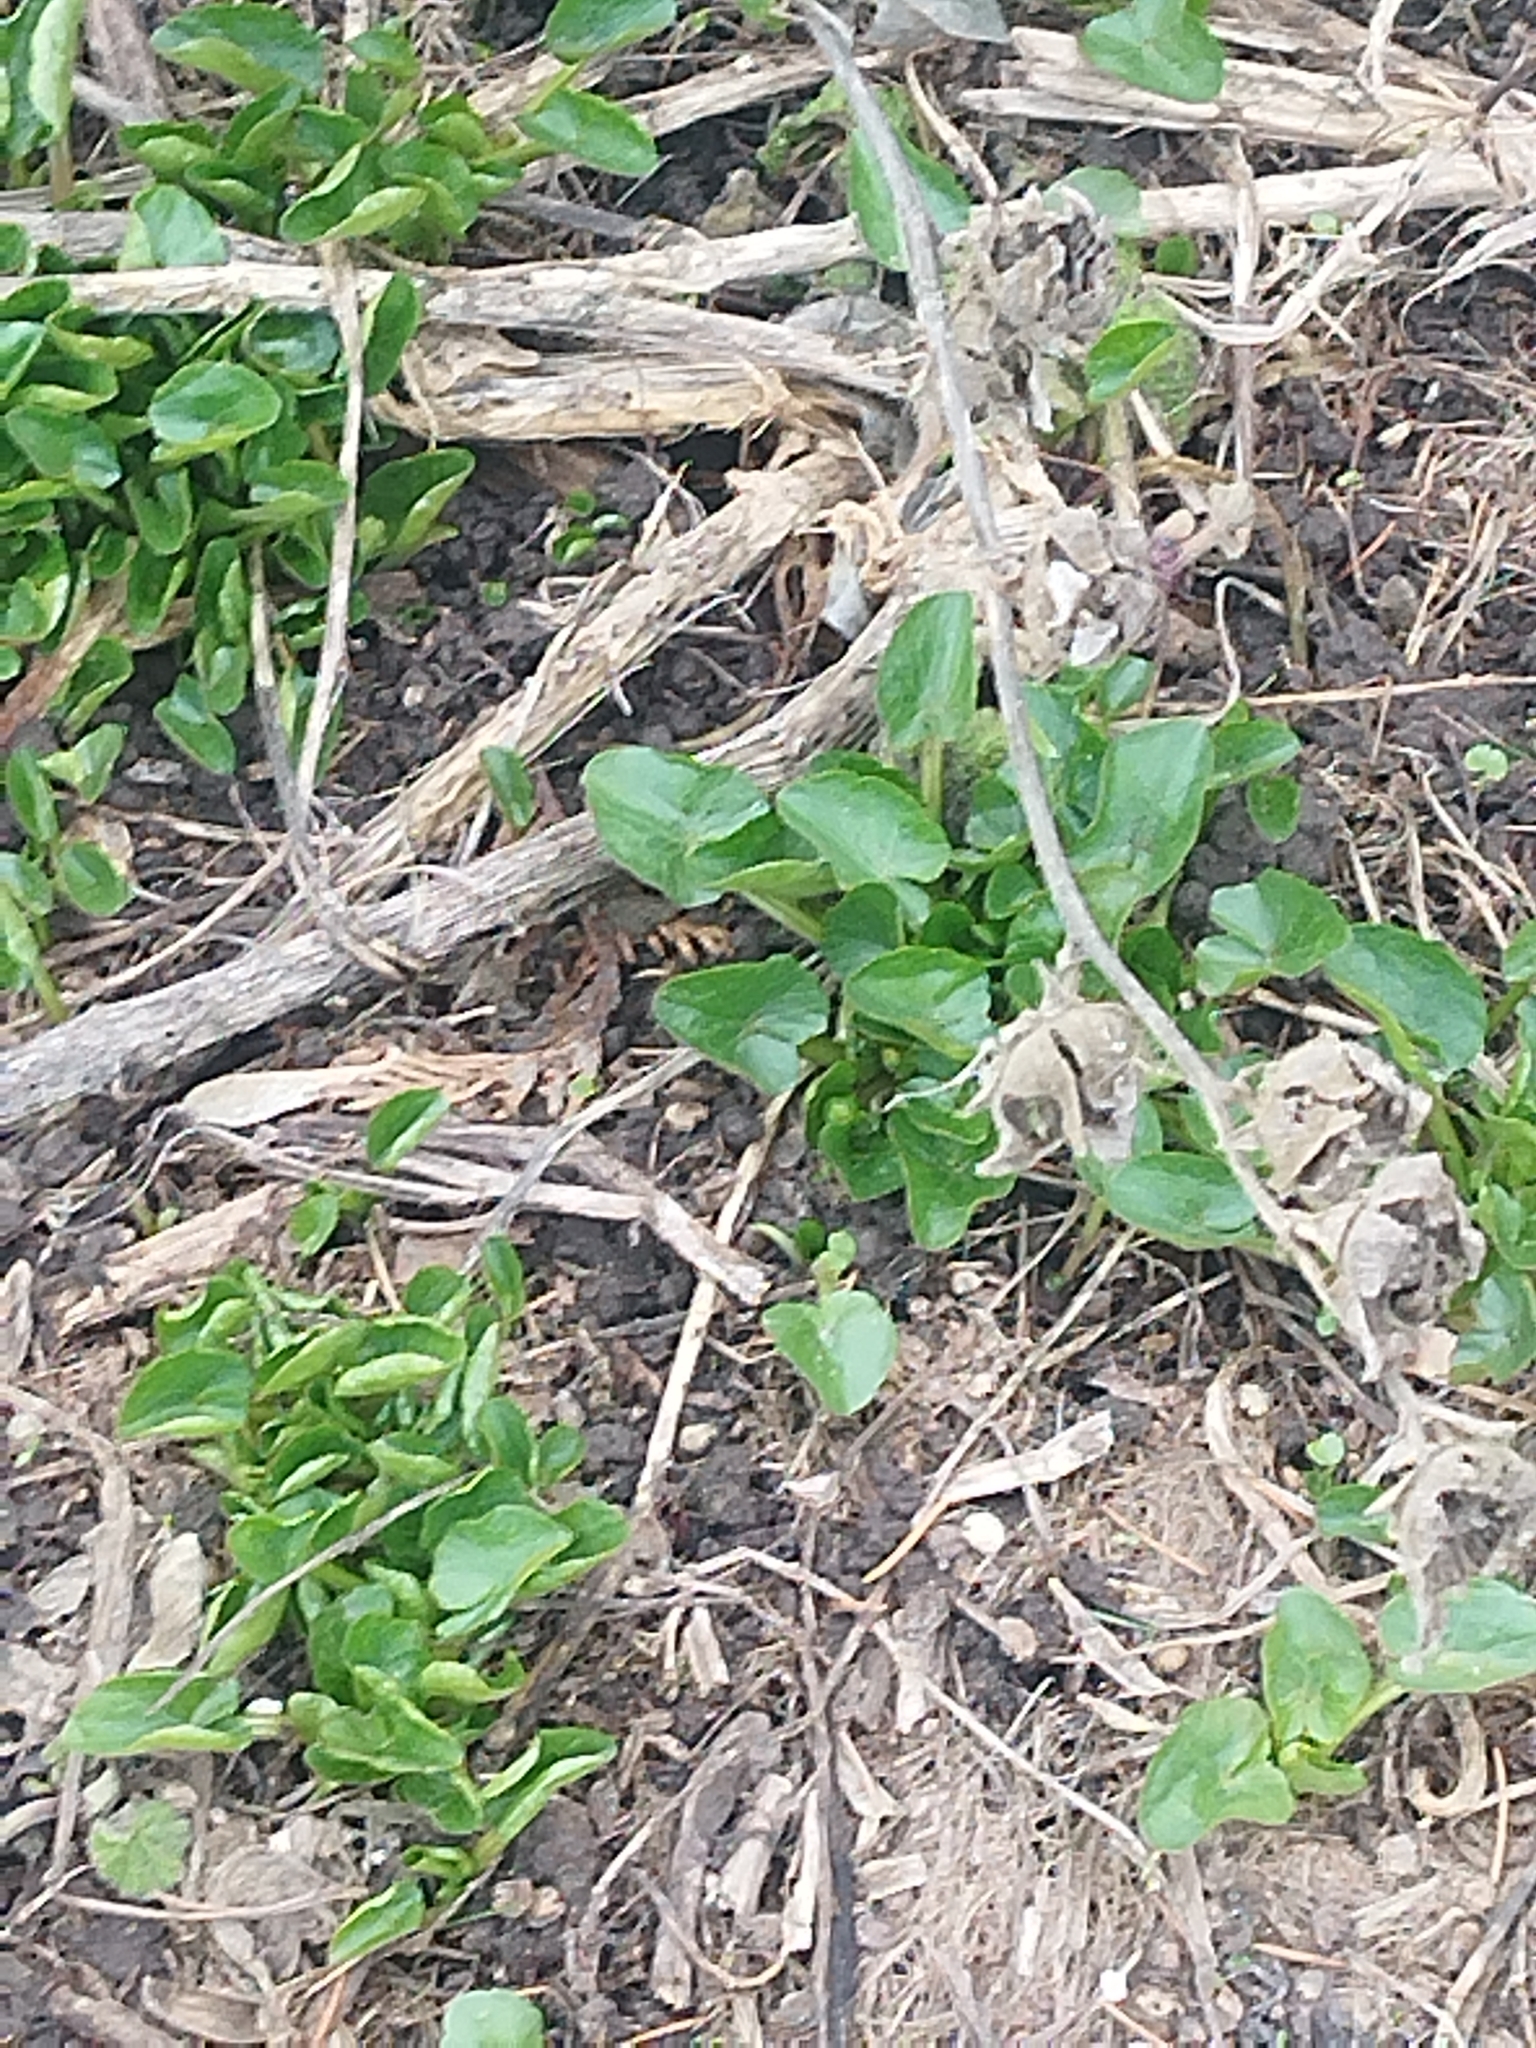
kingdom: Plantae
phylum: Tracheophyta
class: Magnoliopsida
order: Ranunculales
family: Ranunculaceae
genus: Ficaria
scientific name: Ficaria verna
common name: Lesser celandine
